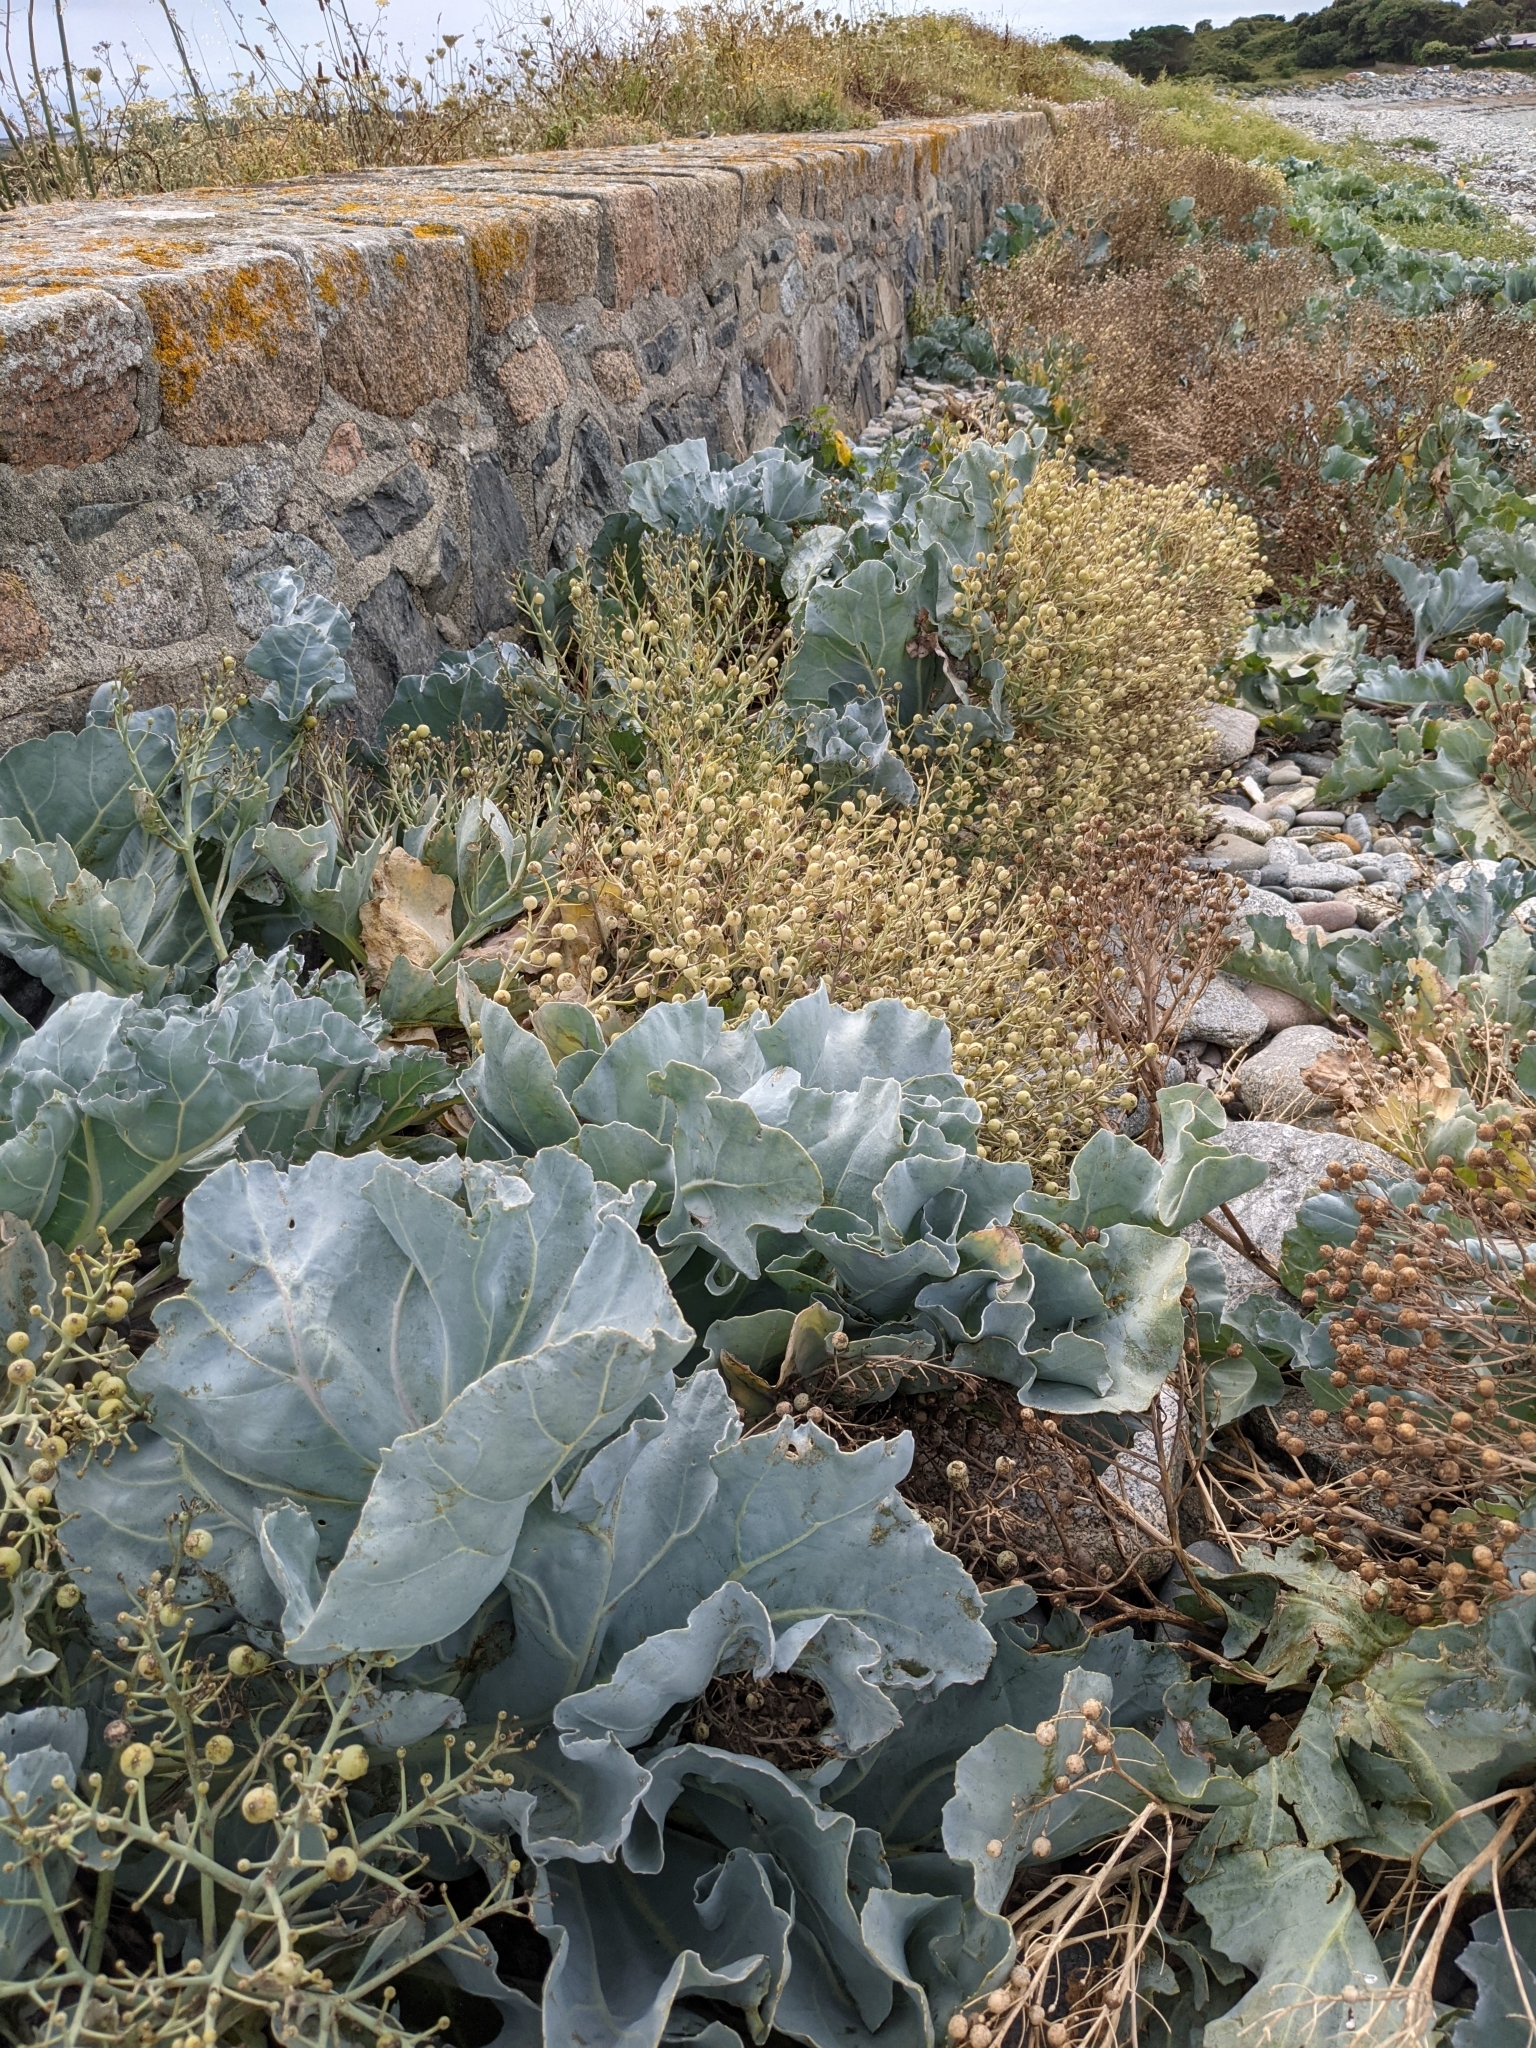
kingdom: Plantae
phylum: Tracheophyta
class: Magnoliopsida
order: Brassicales
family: Brassicaceae
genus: Crambe
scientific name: Crambe maritima
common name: Sea-kale
